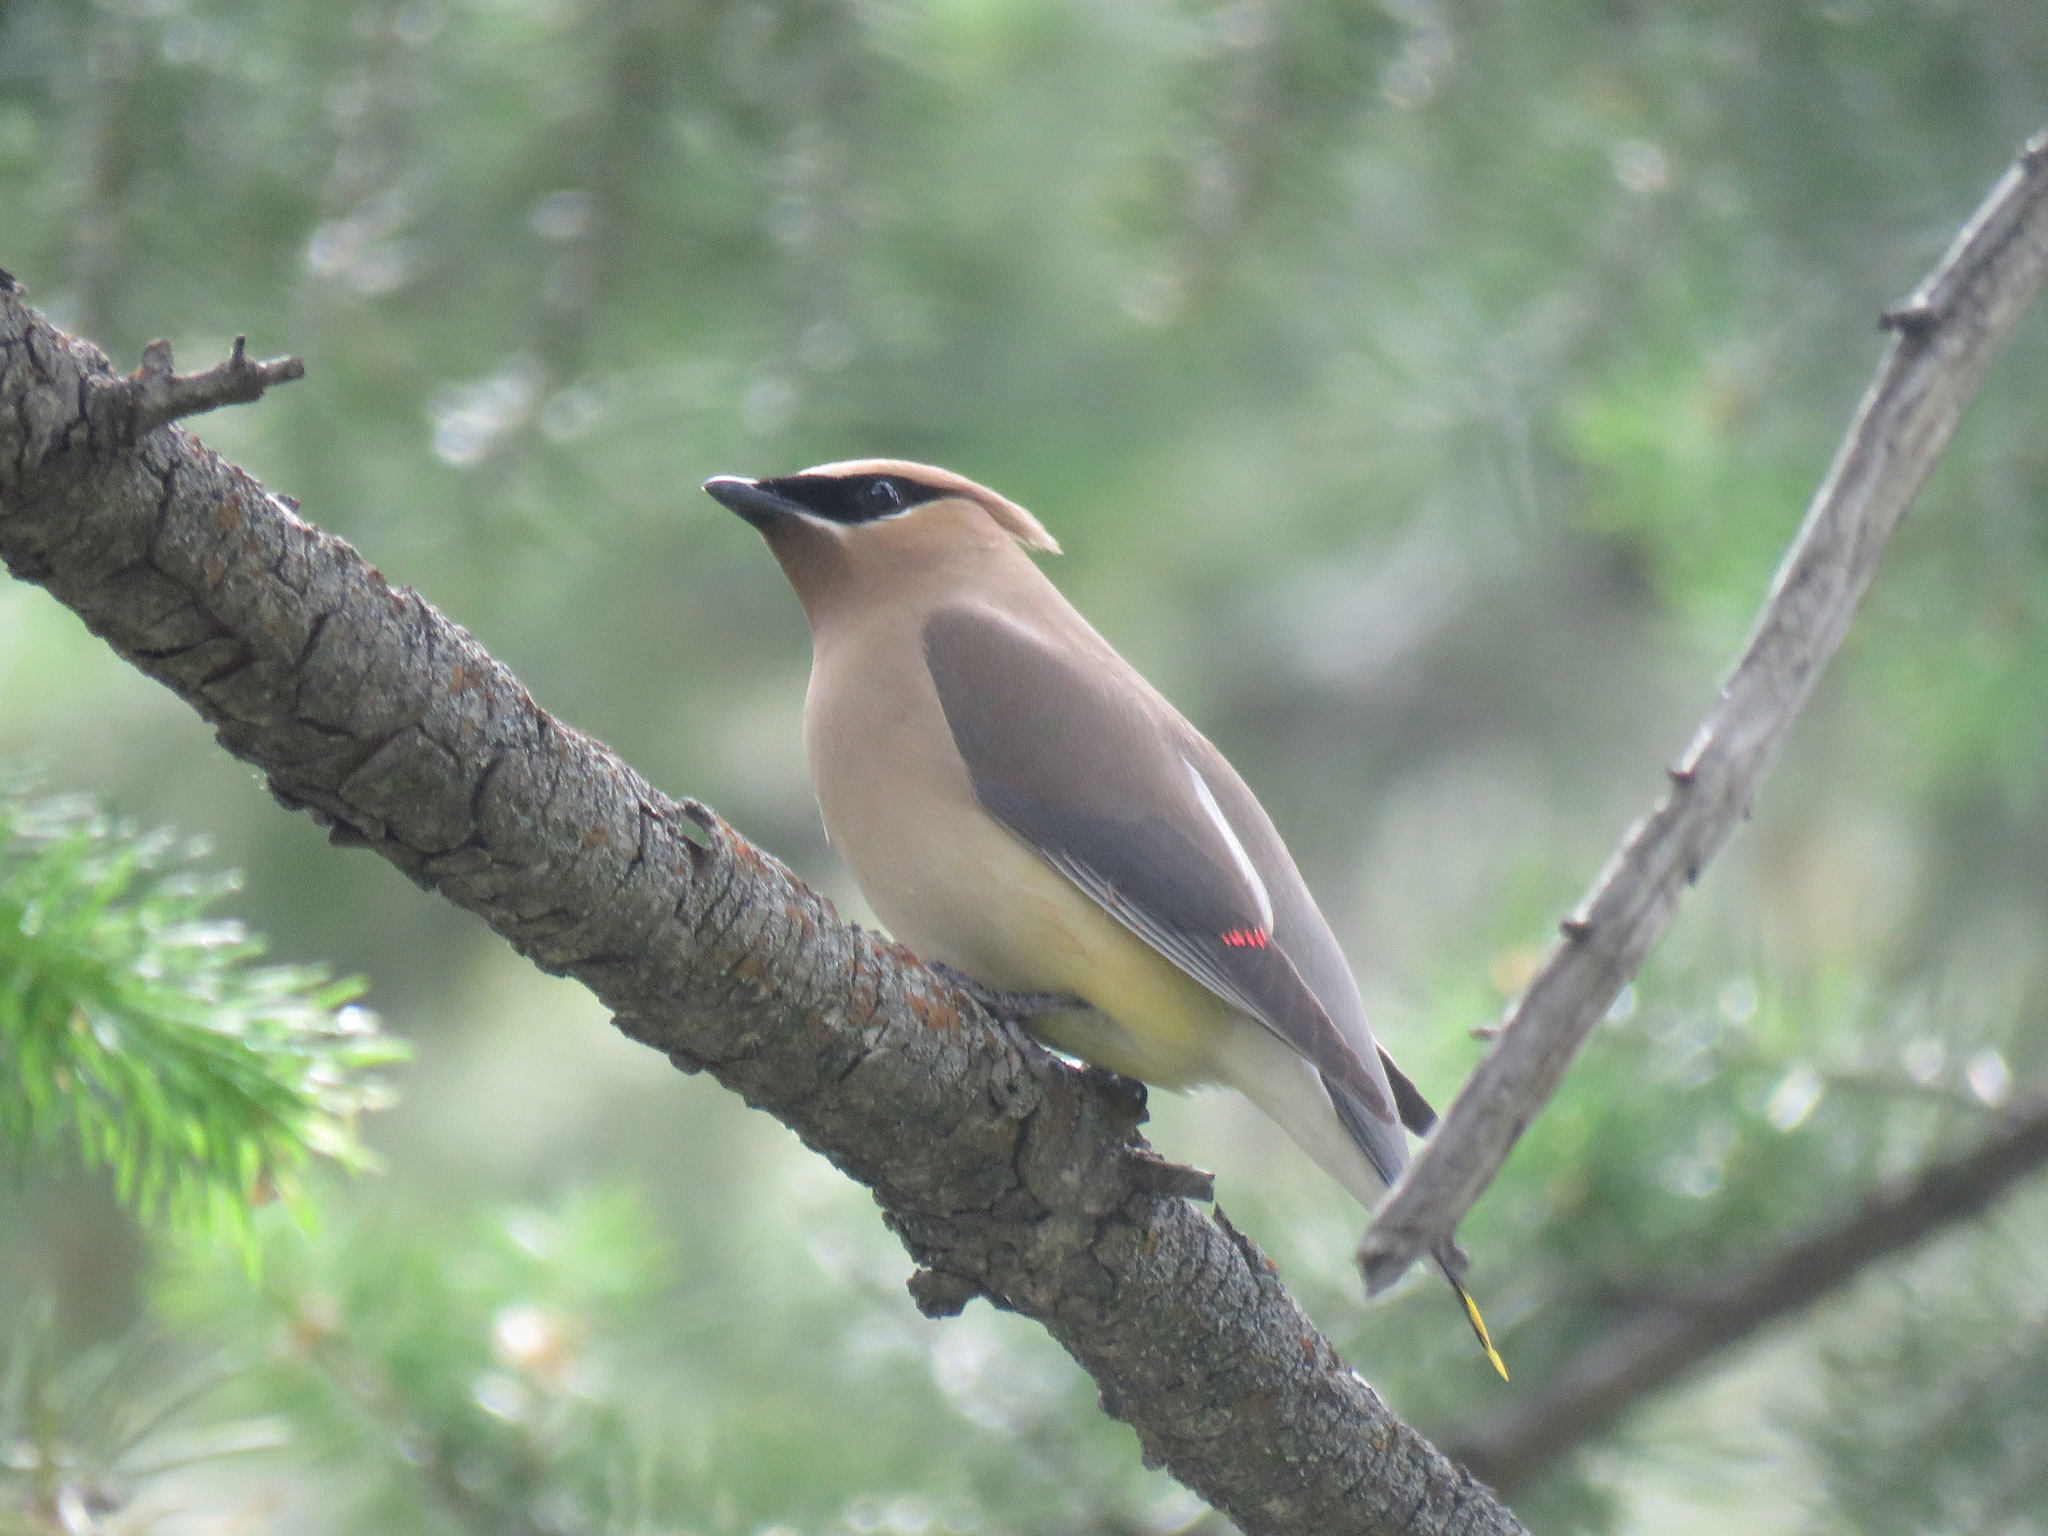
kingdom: Animalia
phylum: Chordata
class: Aves
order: Passeriformes
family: Bombycillidae
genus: Bombycilla
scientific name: Bombycilla cedrorum
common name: Cedar waxwing
